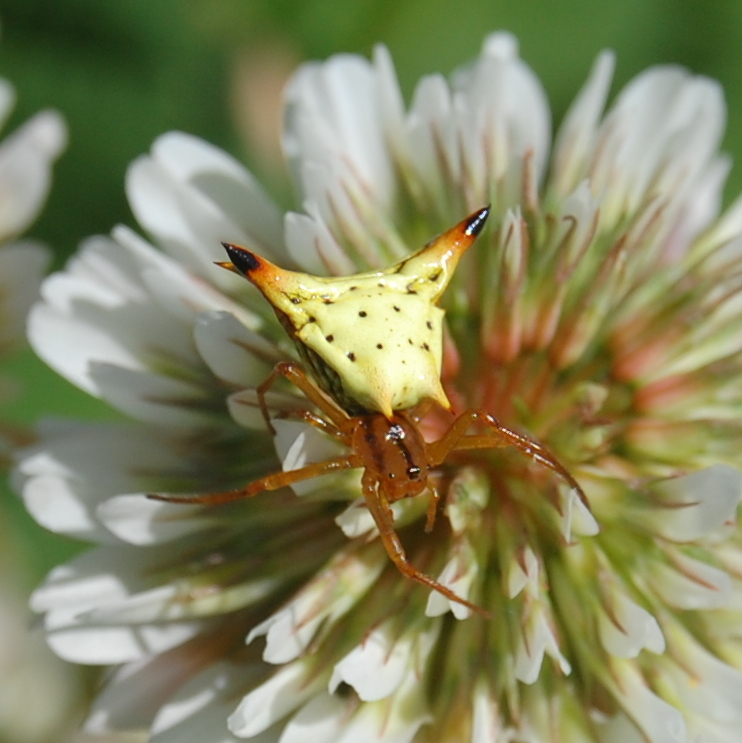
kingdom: Animalia
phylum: Arthropoda
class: Arachnida
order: Araneae
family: Araneidae
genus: Micrathena
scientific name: Micrathena furcata
